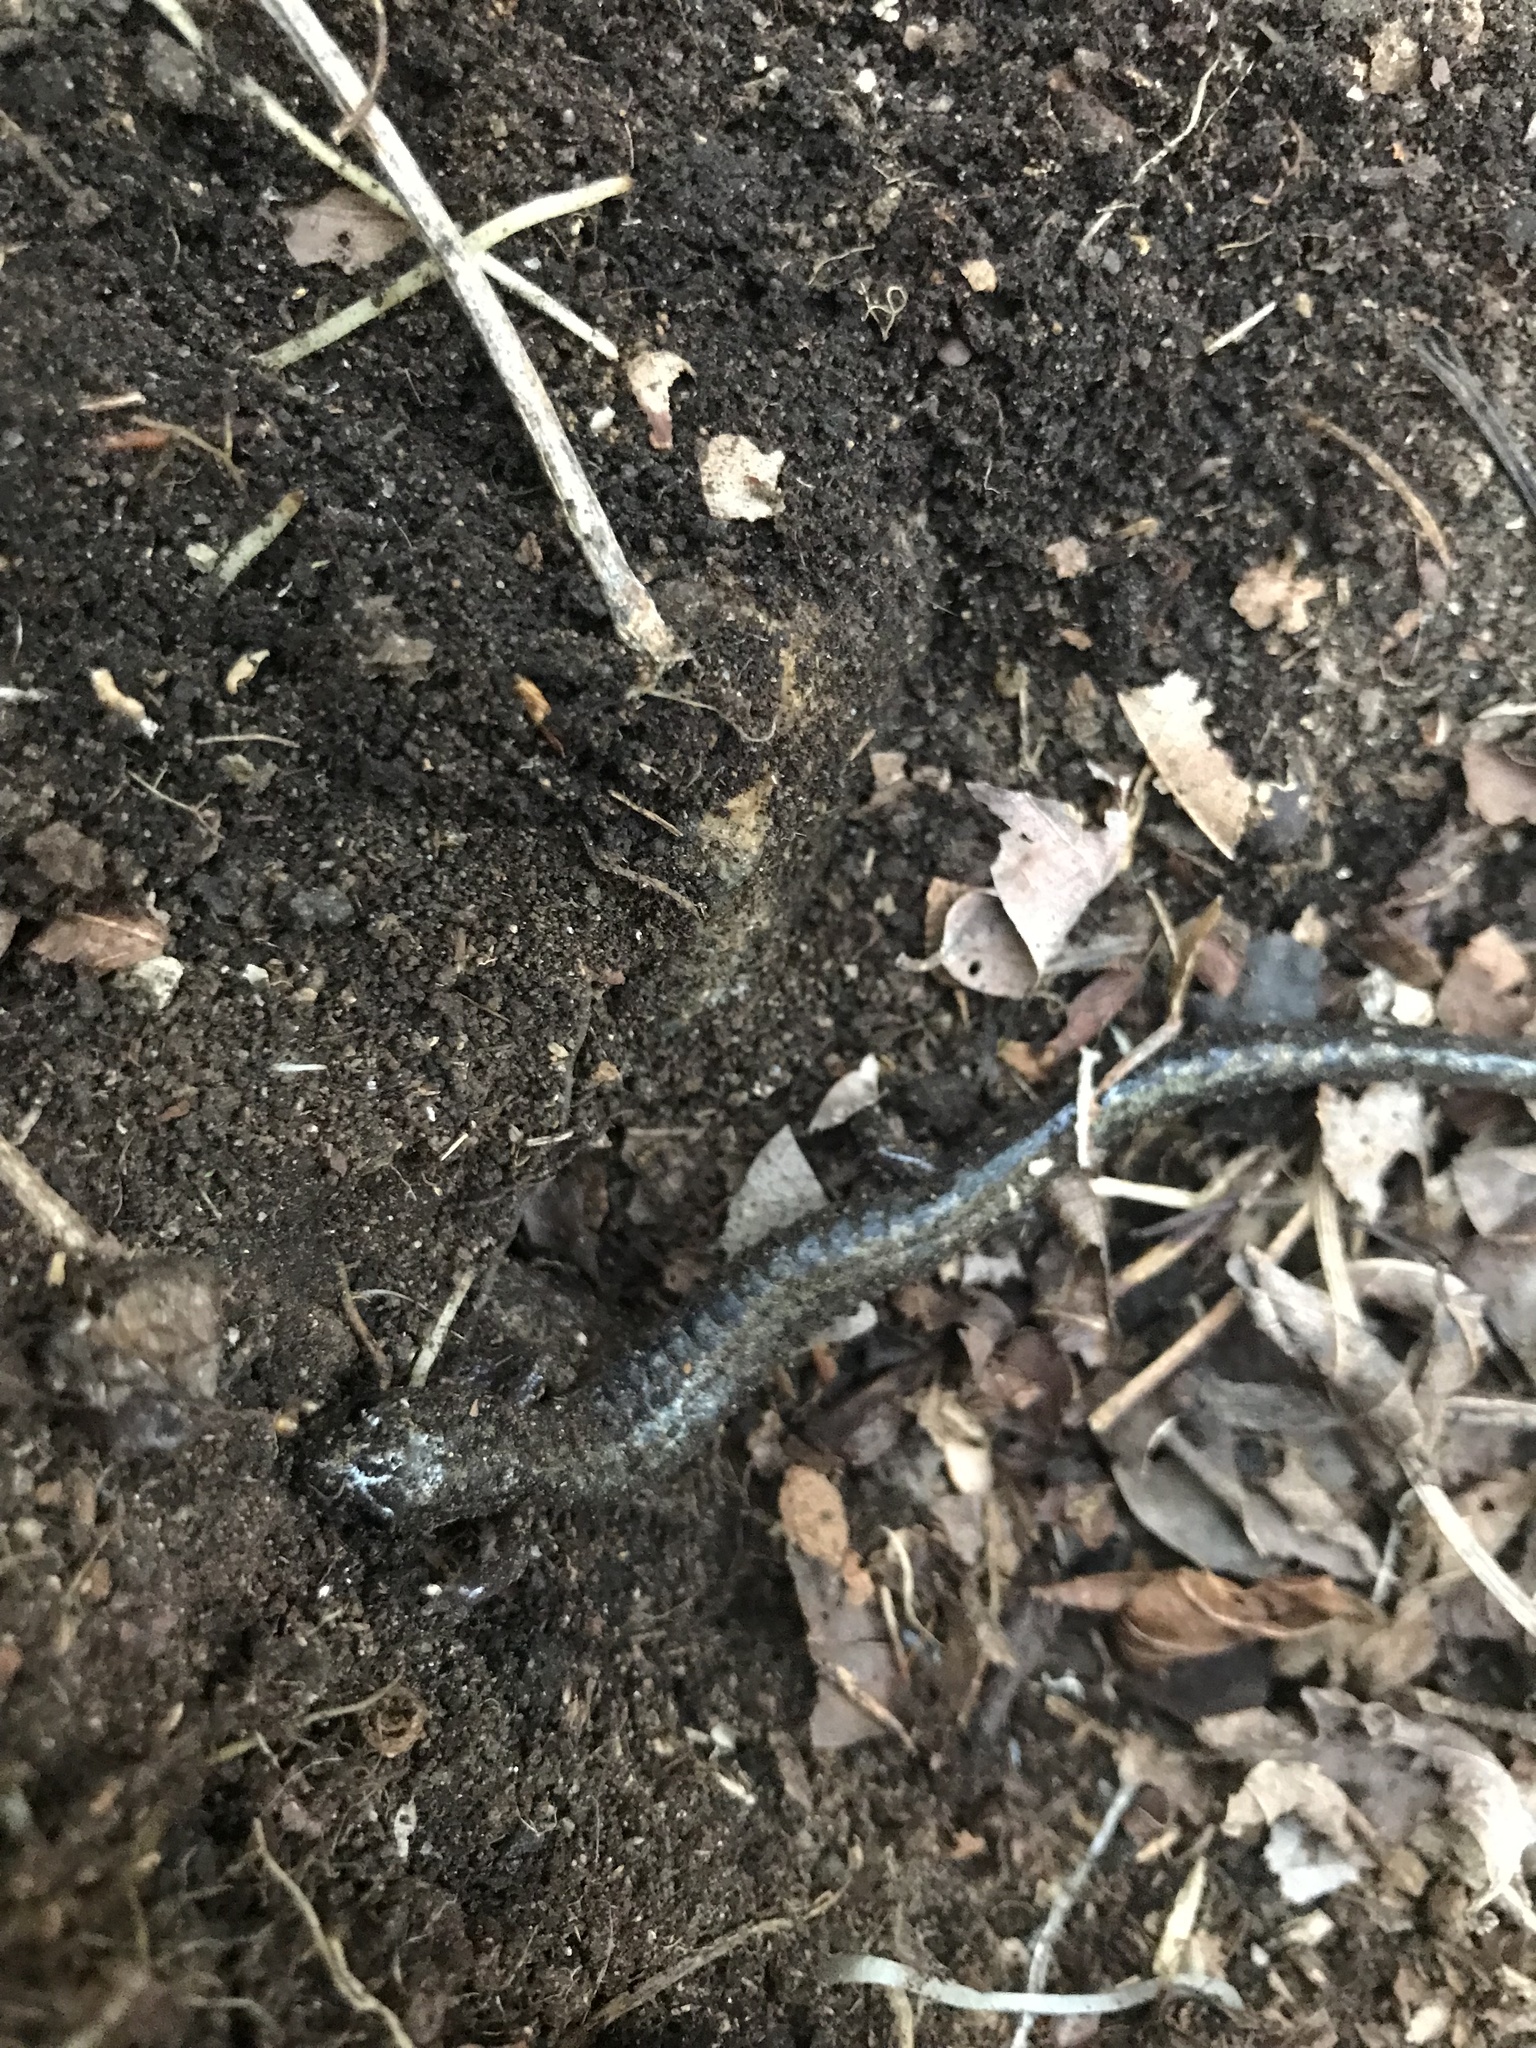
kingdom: Animalia
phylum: Chordata
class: Amphibia
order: Caudata
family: Plethodontidae
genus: Plethodon
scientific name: Plethodon hubrichti
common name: Peaks of otter salamander
